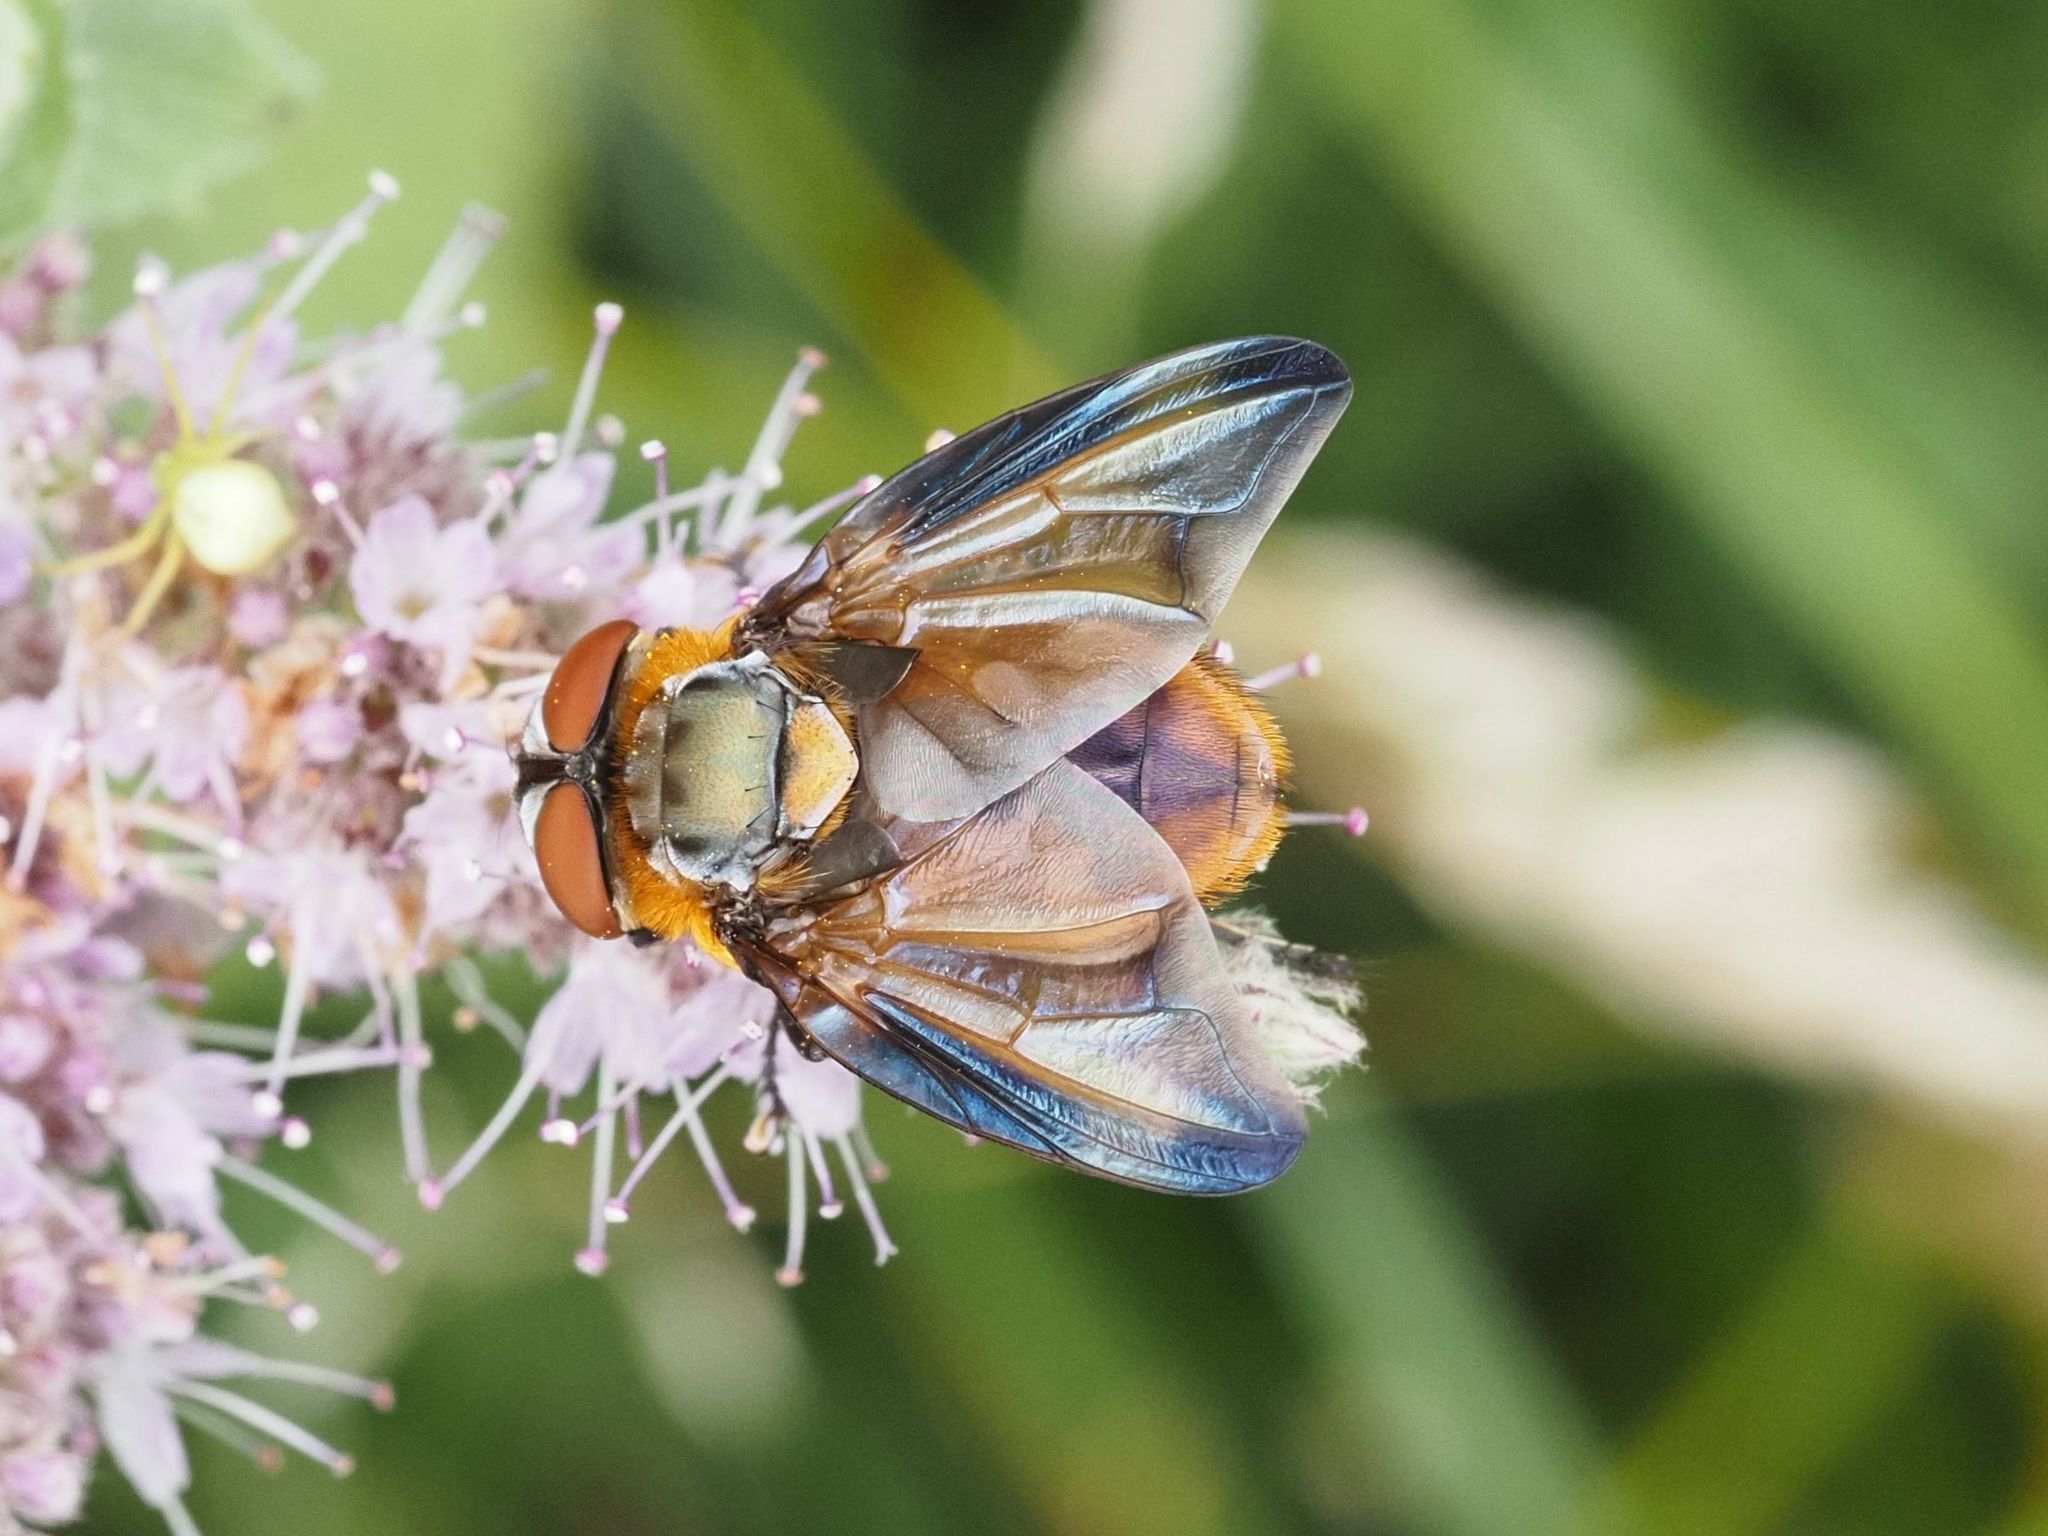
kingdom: Animalia
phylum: Arthropoda
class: Insecta
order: Diptera
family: Tachinidae
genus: Phasia
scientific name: Phasia hemiptera
